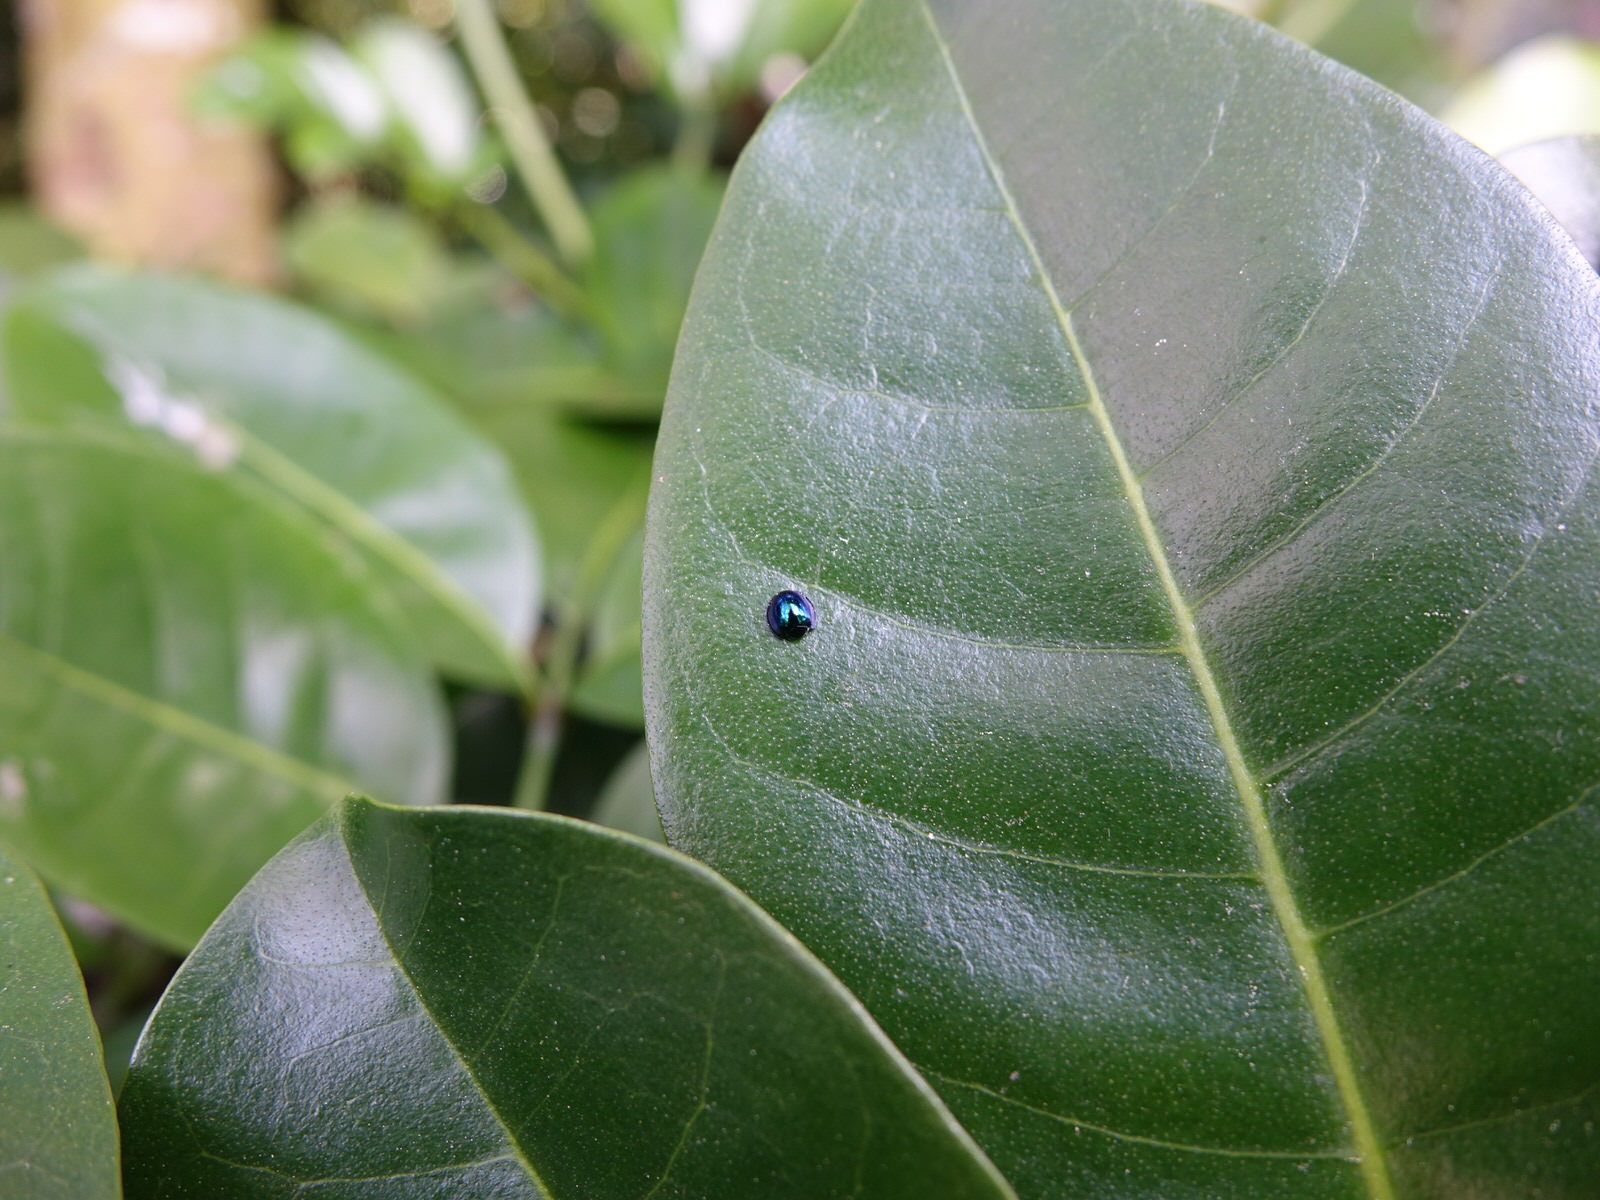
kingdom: Animalia
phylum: Arthropoda
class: Insecta
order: Coleoptera
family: Coccinellidae
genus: Halmus
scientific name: Halmus chalybeus
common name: Steel blue ladybird beetle
